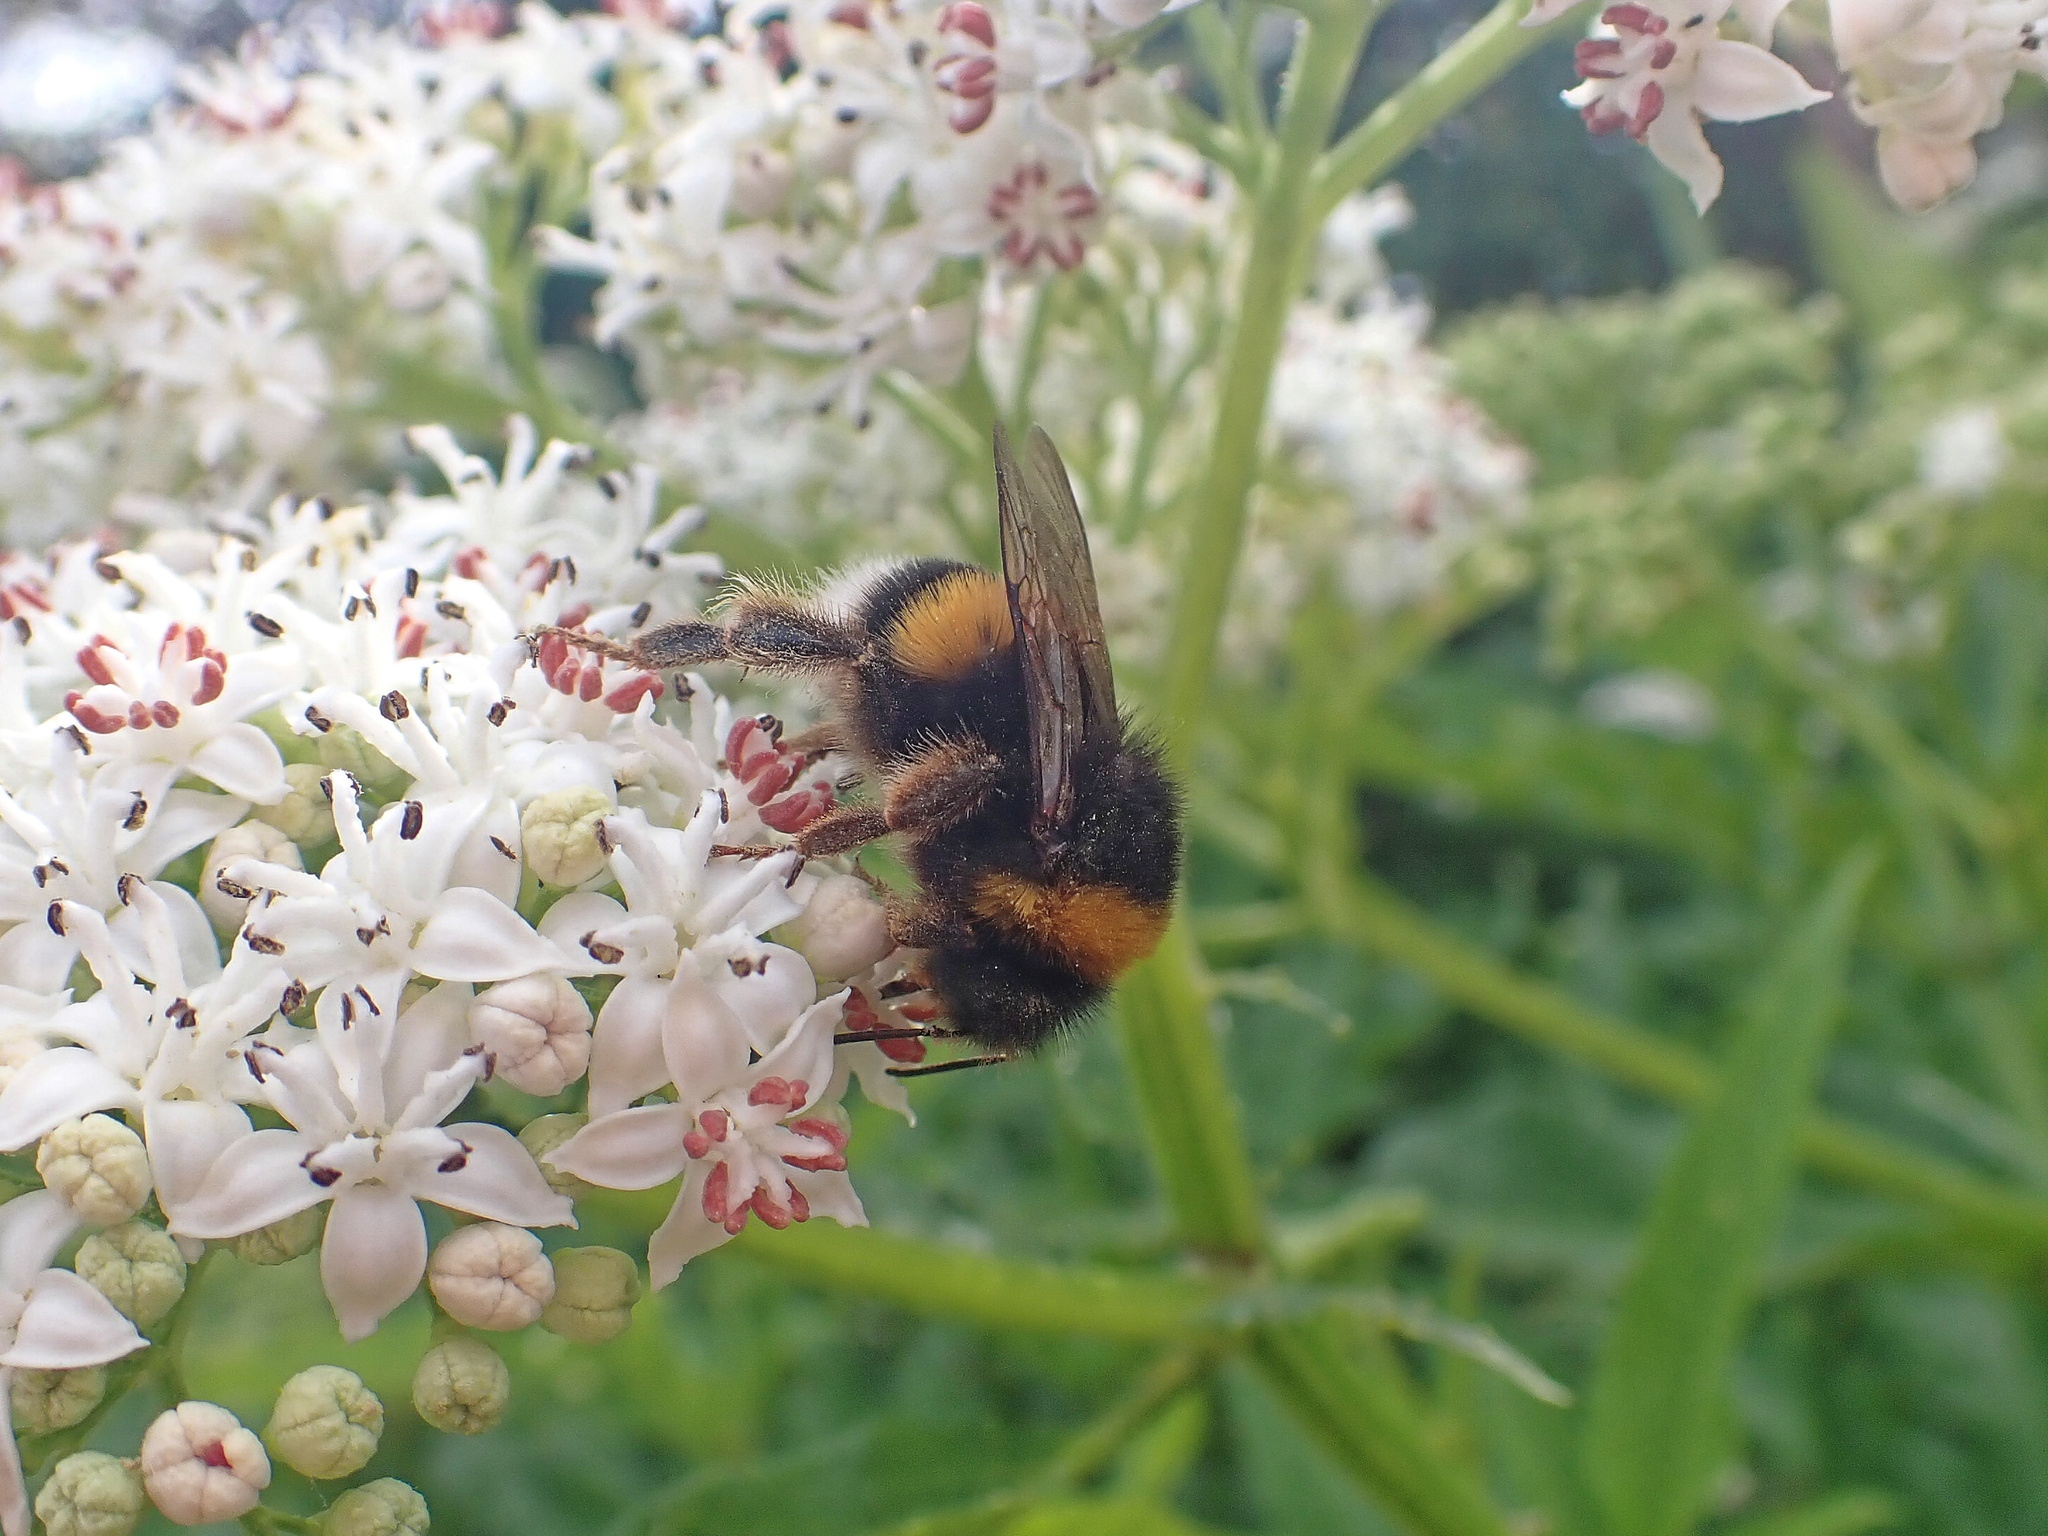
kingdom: Animalia
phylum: Arthropoda
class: Insecta
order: Hymenoptera
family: Apidae
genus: Bombus
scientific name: Bombus terrestris
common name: Buff-tailed bumblebee
